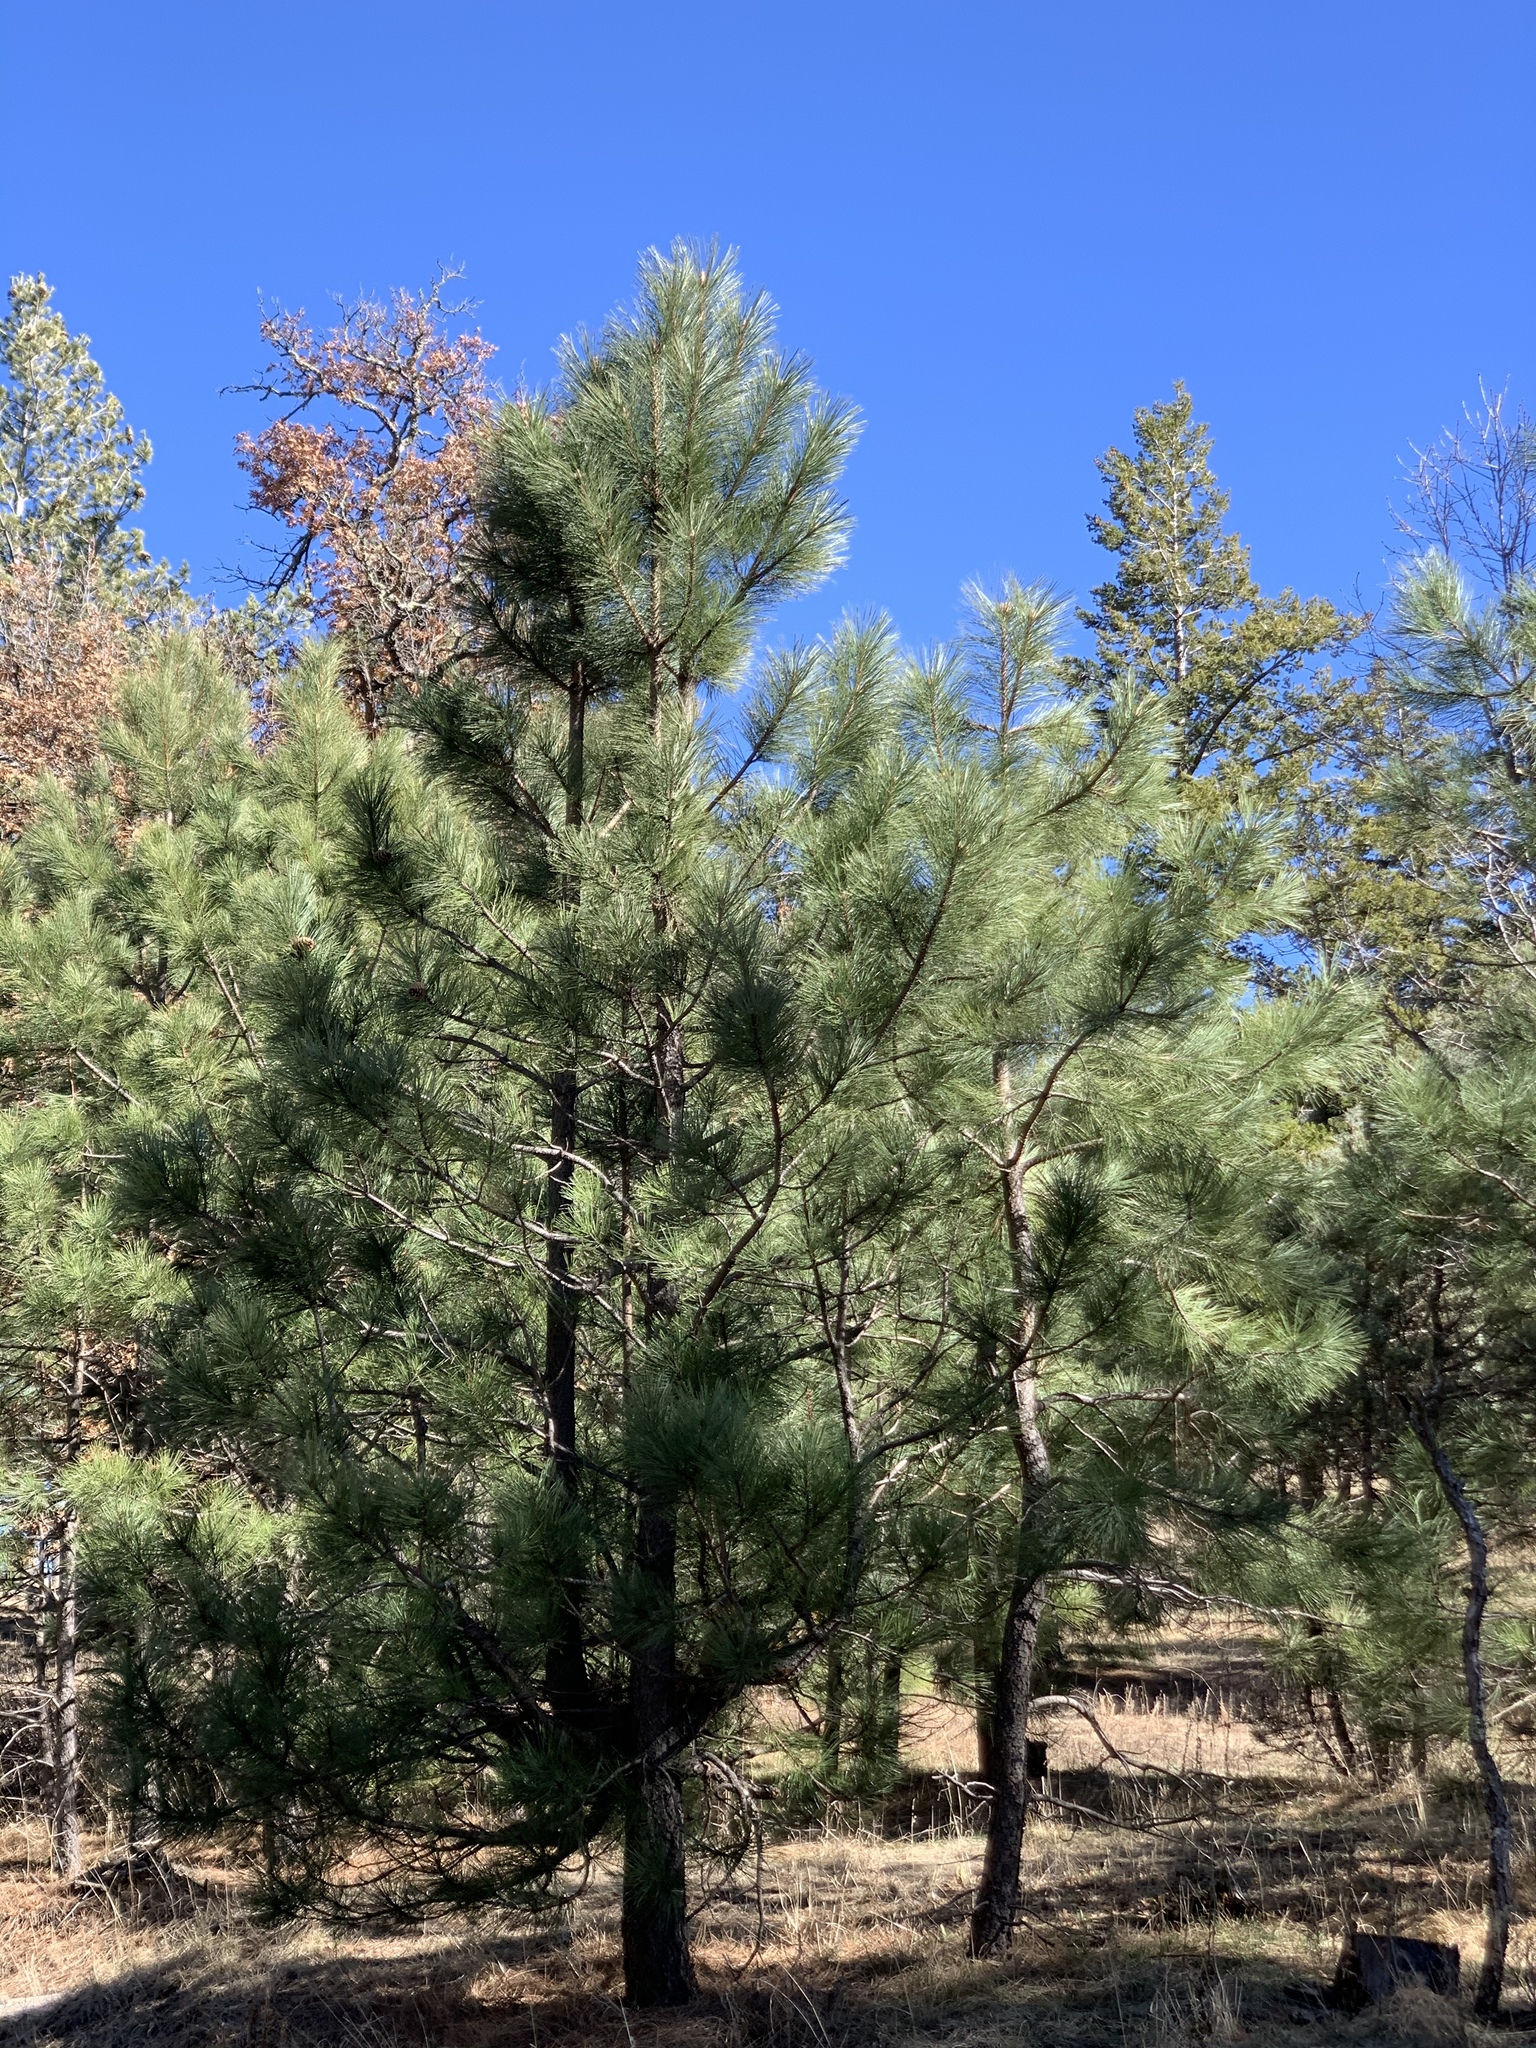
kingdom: Plantae
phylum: Tracheophyta
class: Pinopsida
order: Pinales
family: Pinaceae
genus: Pinus
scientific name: Pinus ponderosa
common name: Western yellow-pine
